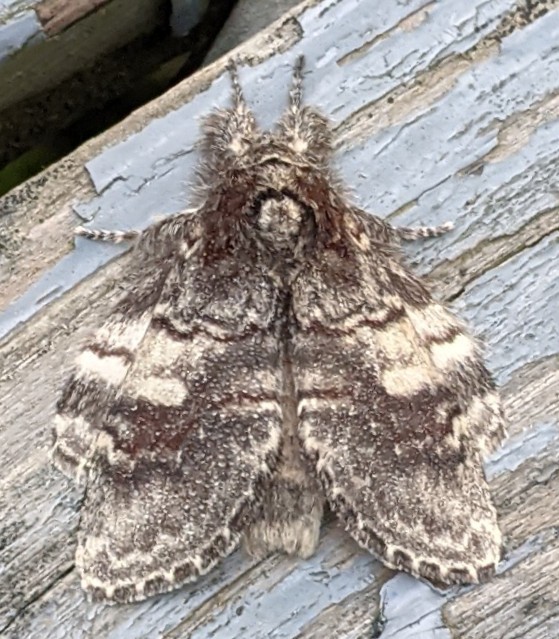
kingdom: Animalia
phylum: Arthropoda
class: Insecta
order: Lepidoptera
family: Notodontidae
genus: Peridea
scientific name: Peridea ferruginea
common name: Chocolate prominent
